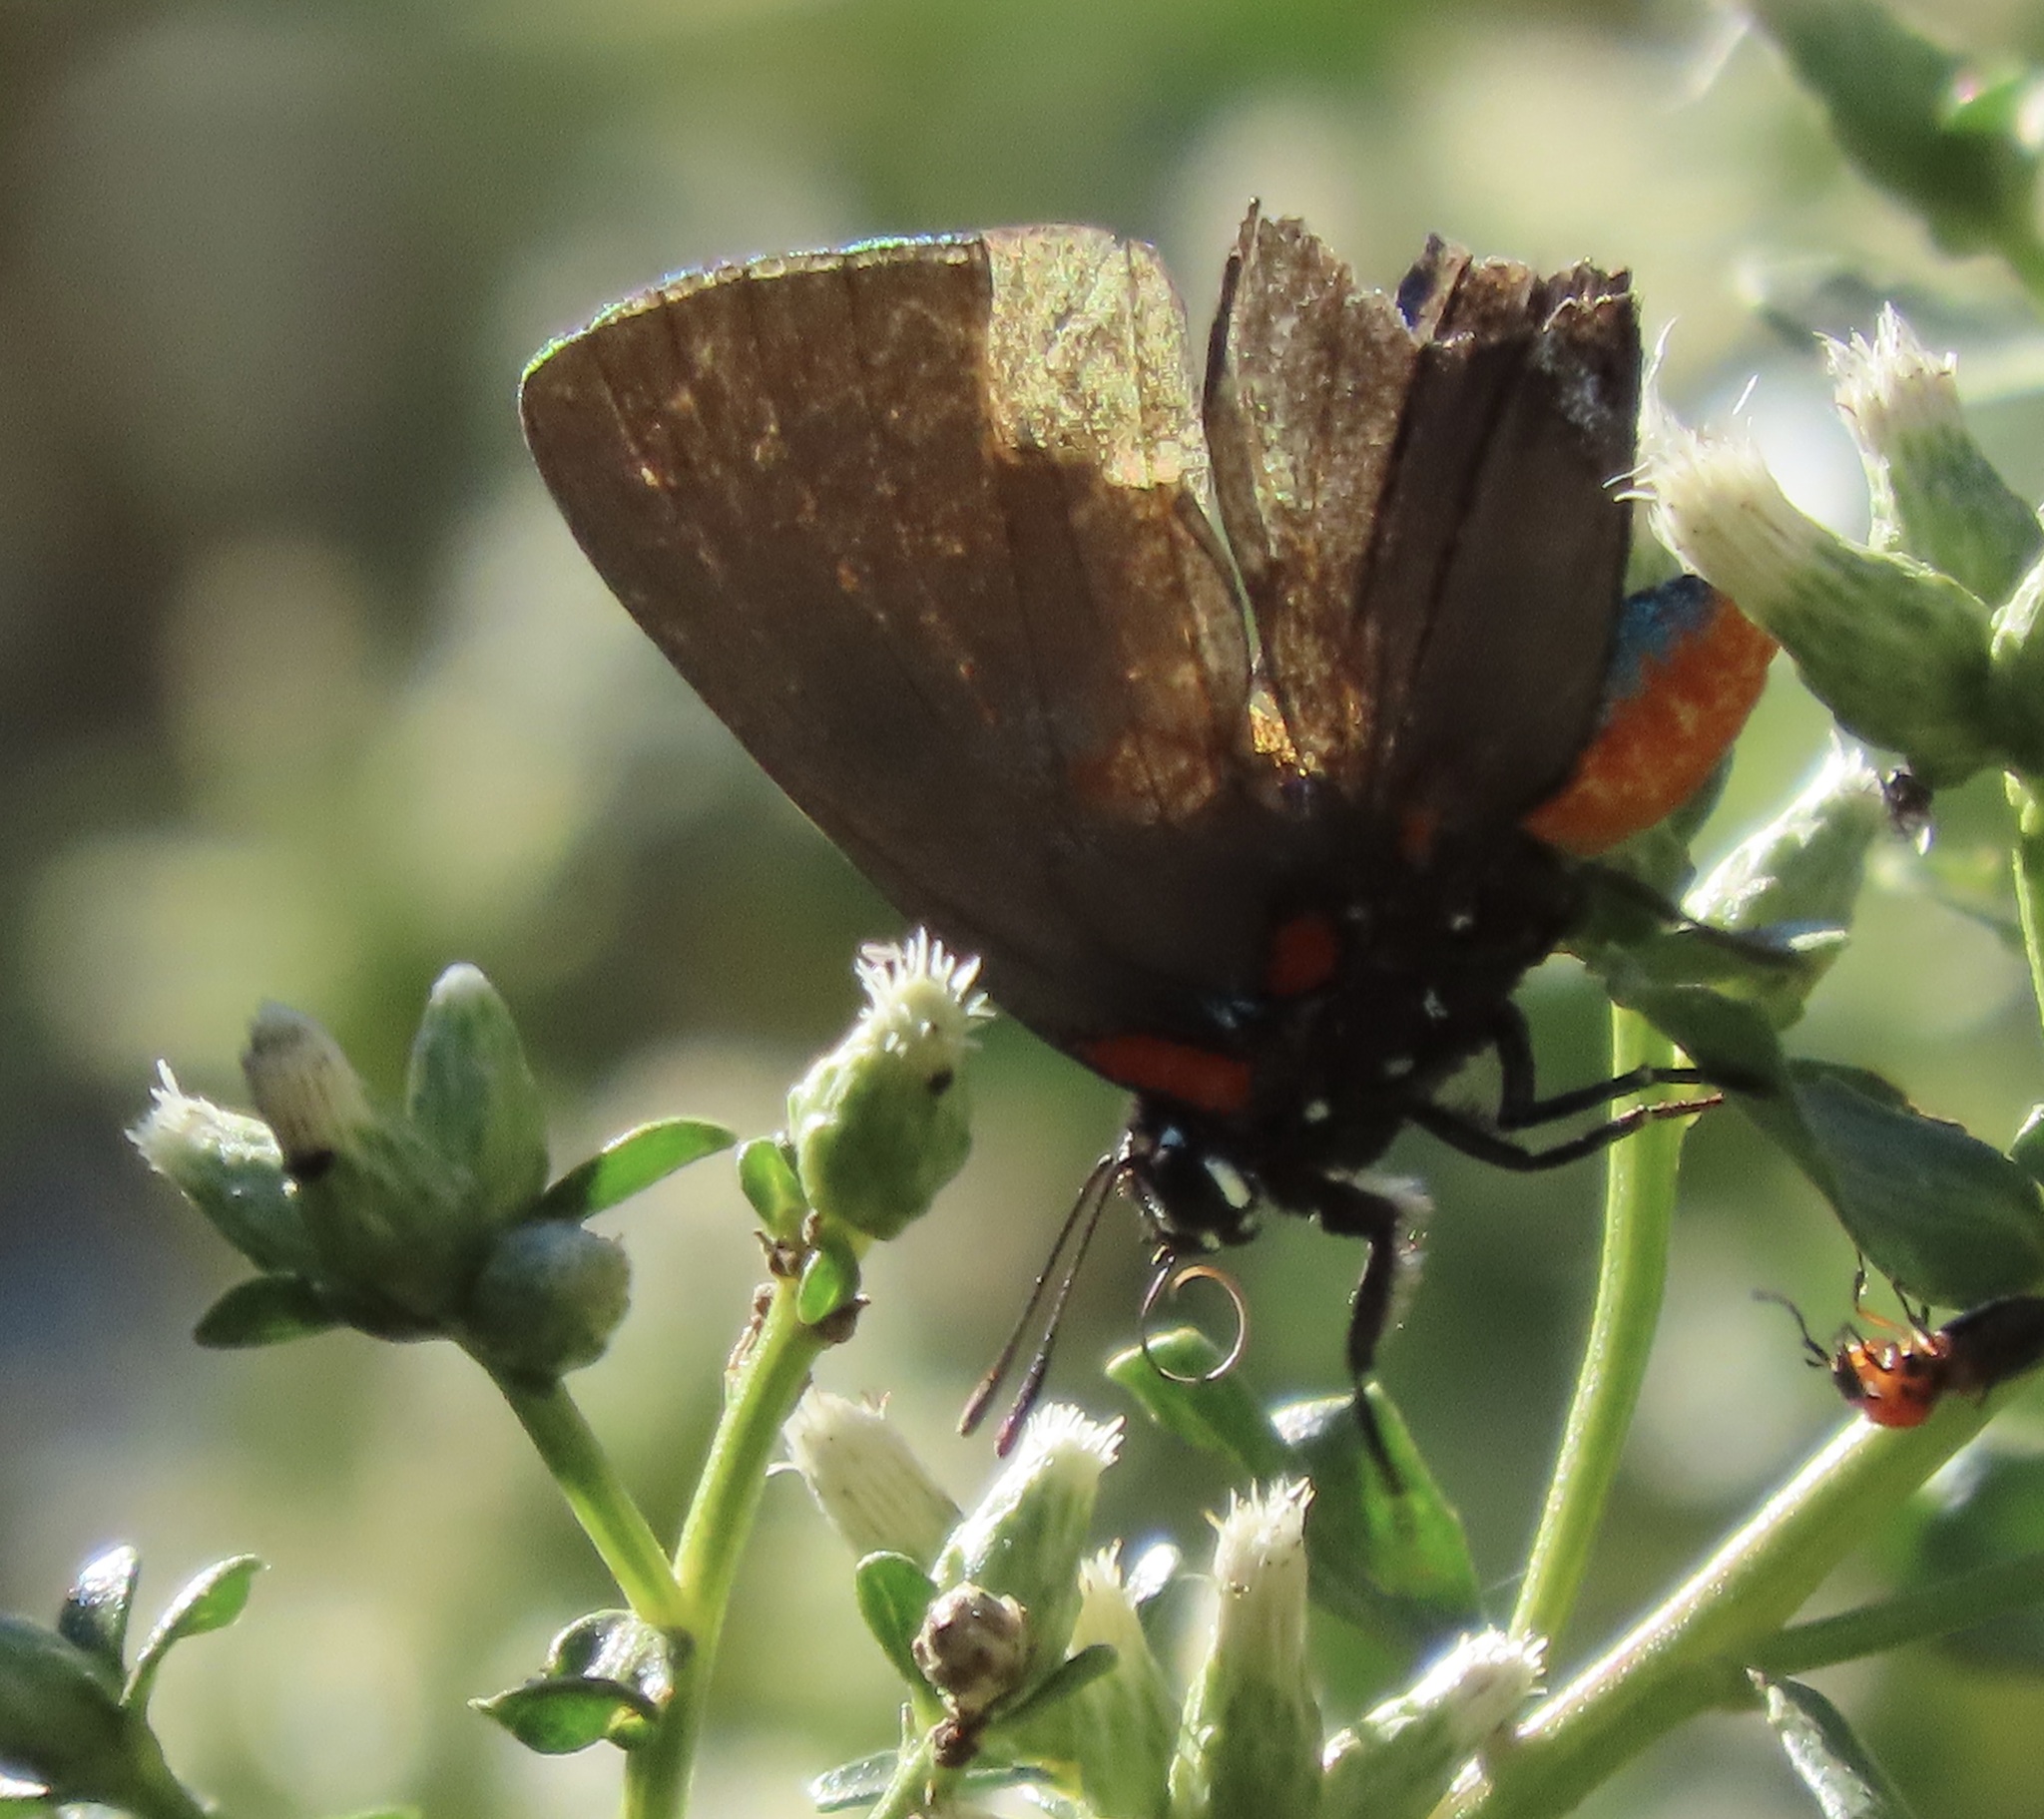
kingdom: Animalia
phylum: Arthropoda
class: Insecta
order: Lepidoptera
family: Lycaenidae
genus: Atlides
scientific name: Atlides halesus
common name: Great purple hairstreak
